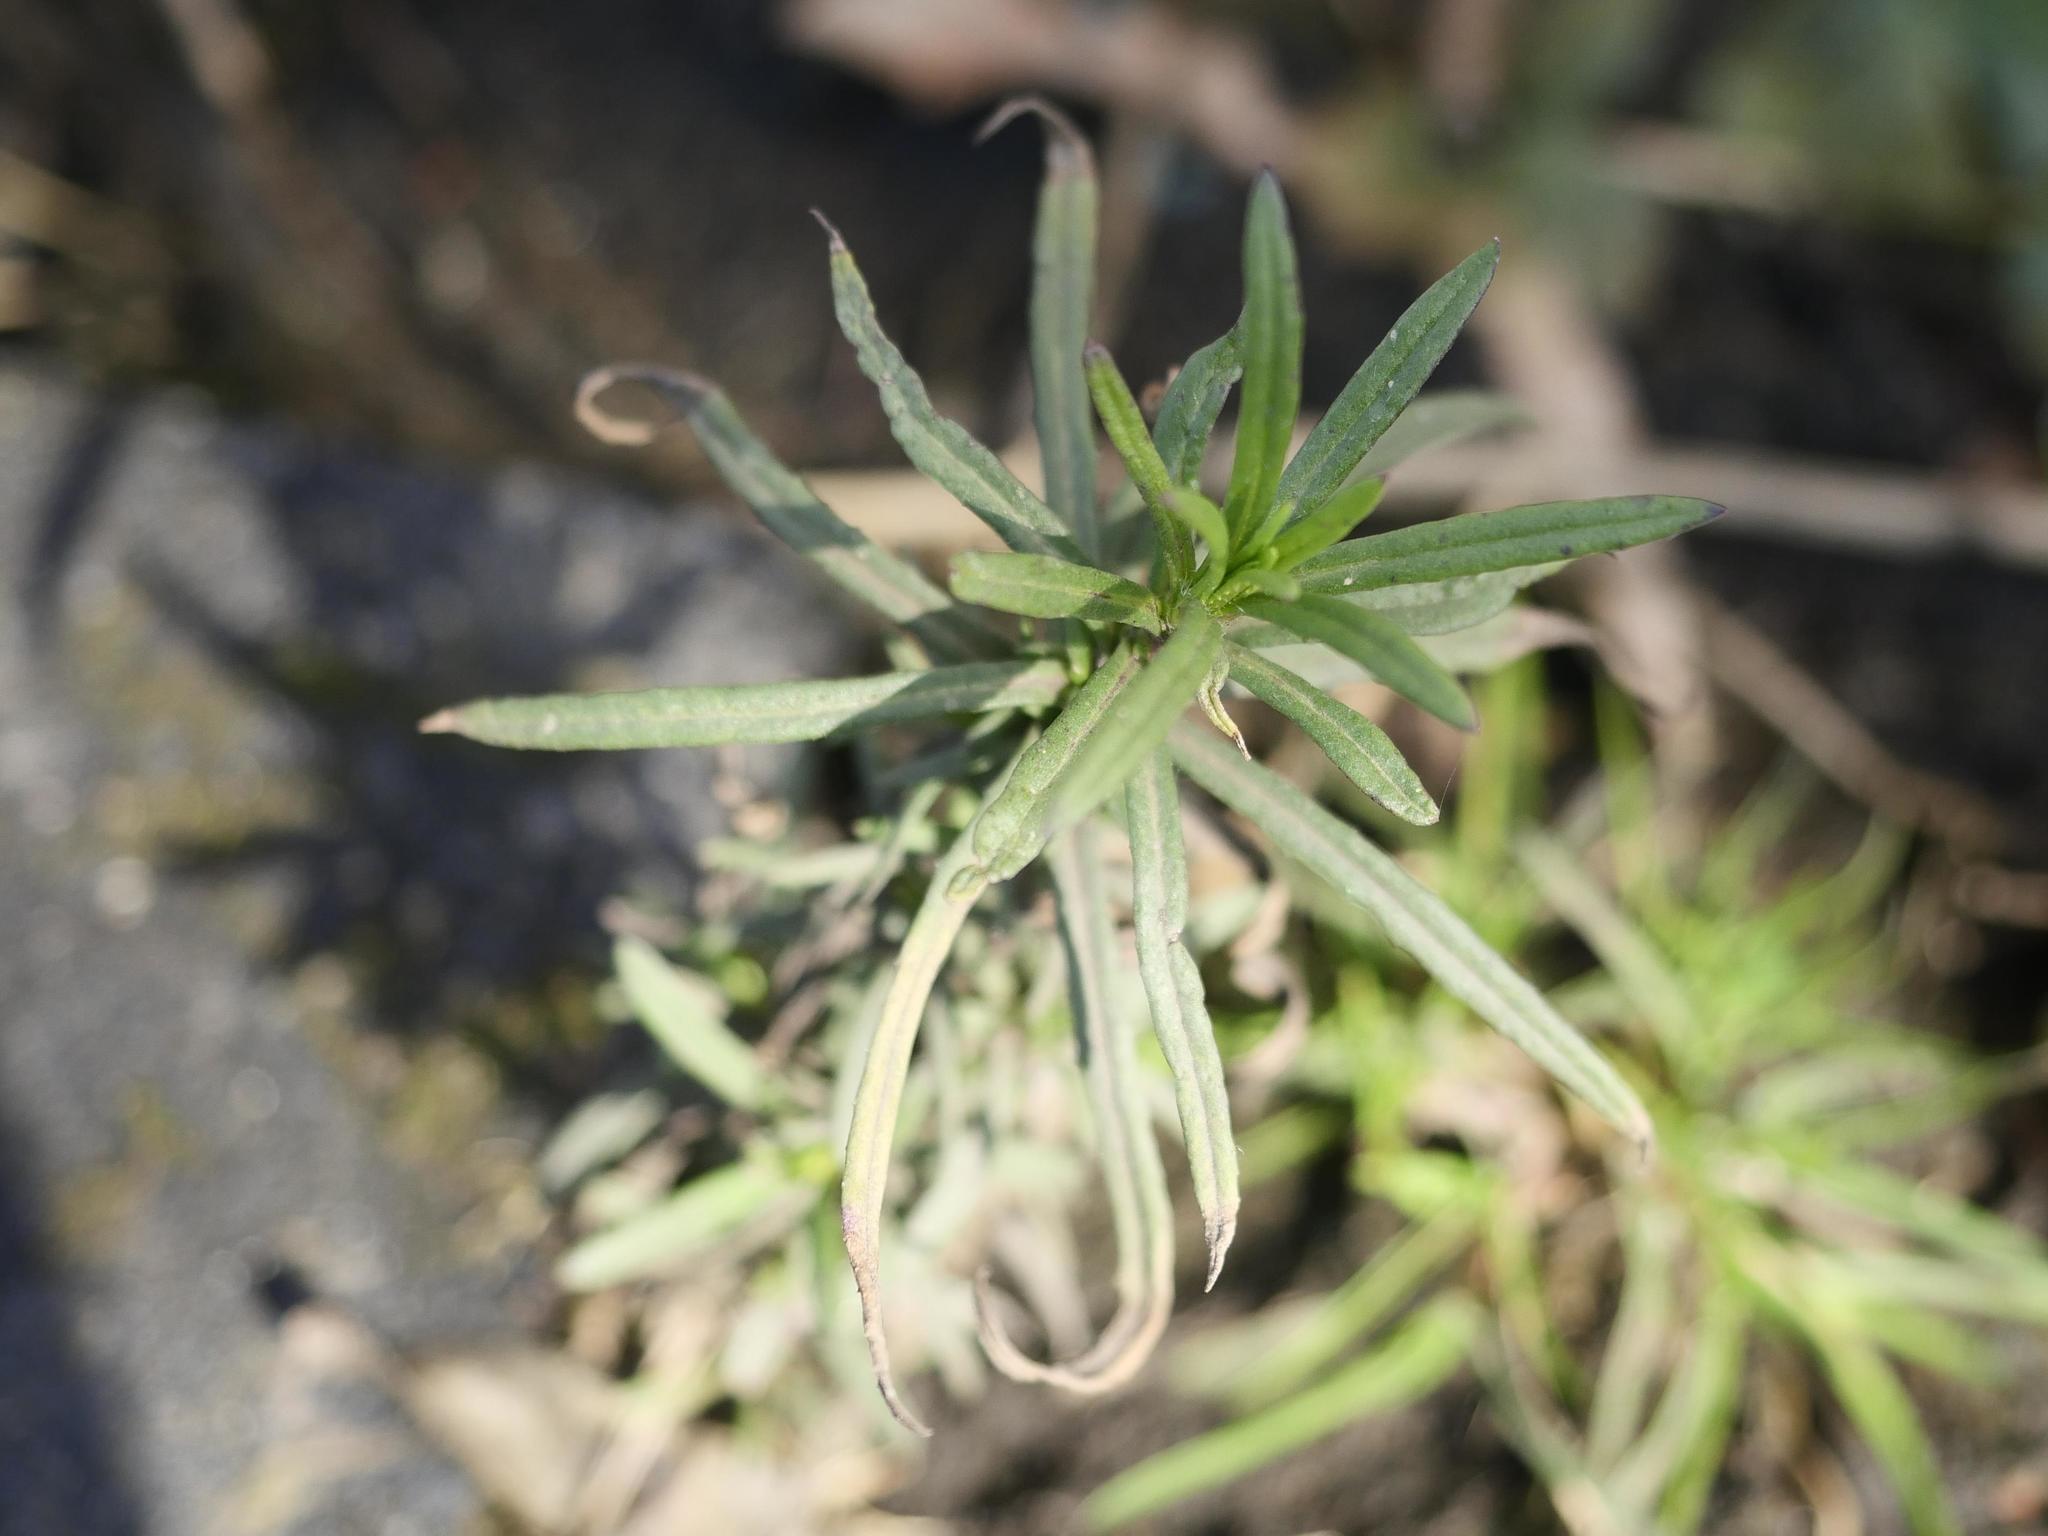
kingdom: Plantae
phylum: Tracheophyta
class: Magnoliopsida
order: Asterales
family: Asteraceae
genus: Senecio
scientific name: Senecio inaequidens
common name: Narrow-leaved ragwort
